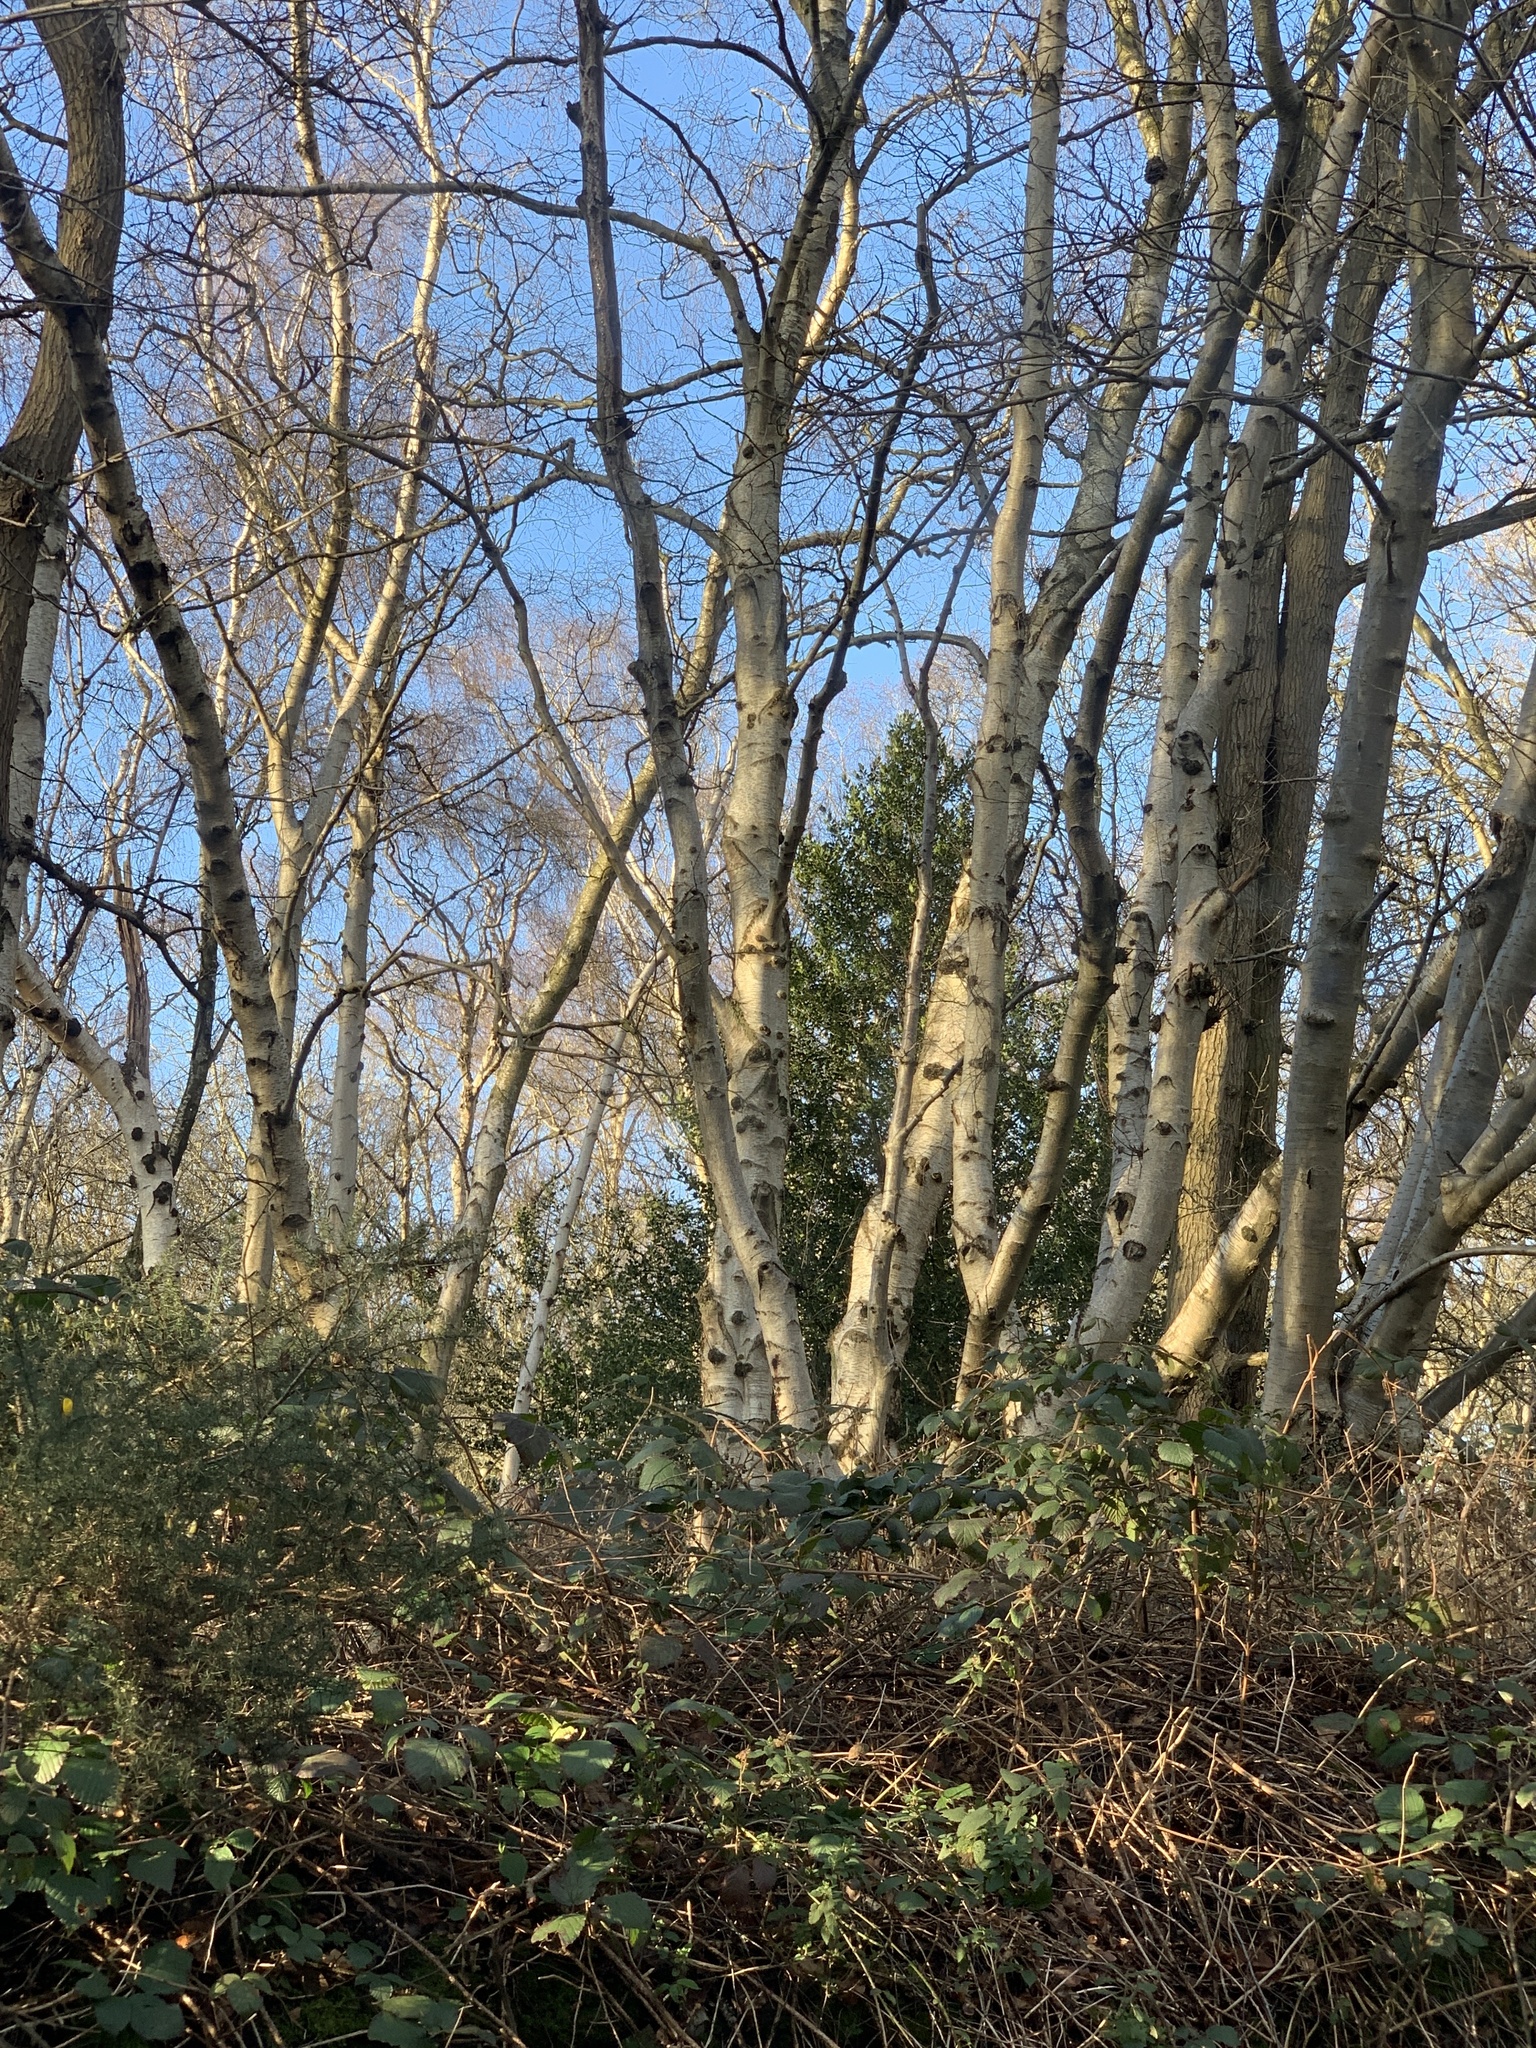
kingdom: Plantae
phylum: Tracheophyta
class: Magnoliopsida
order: Fagales
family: Betulaceae
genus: Betula
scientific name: Betula pendula
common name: Silver birch
